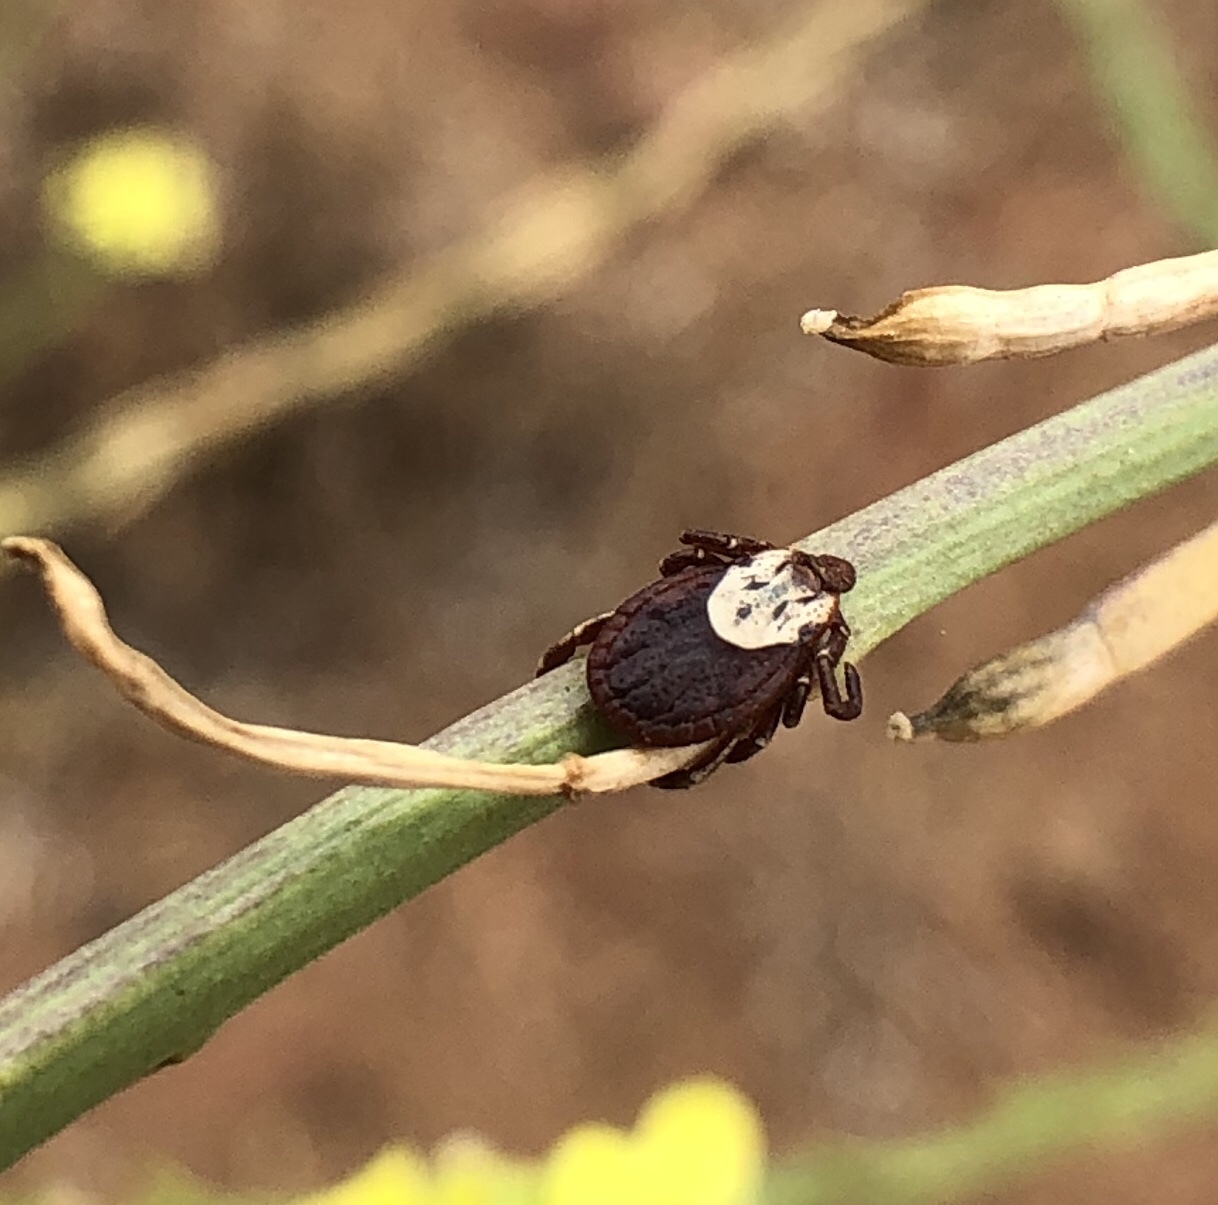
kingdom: Animalia
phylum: Arthropoda
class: Arachnida
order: Ixodida
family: Ixodidae
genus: Dermacentor
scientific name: Dermacentor variabilis
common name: American dog tick
